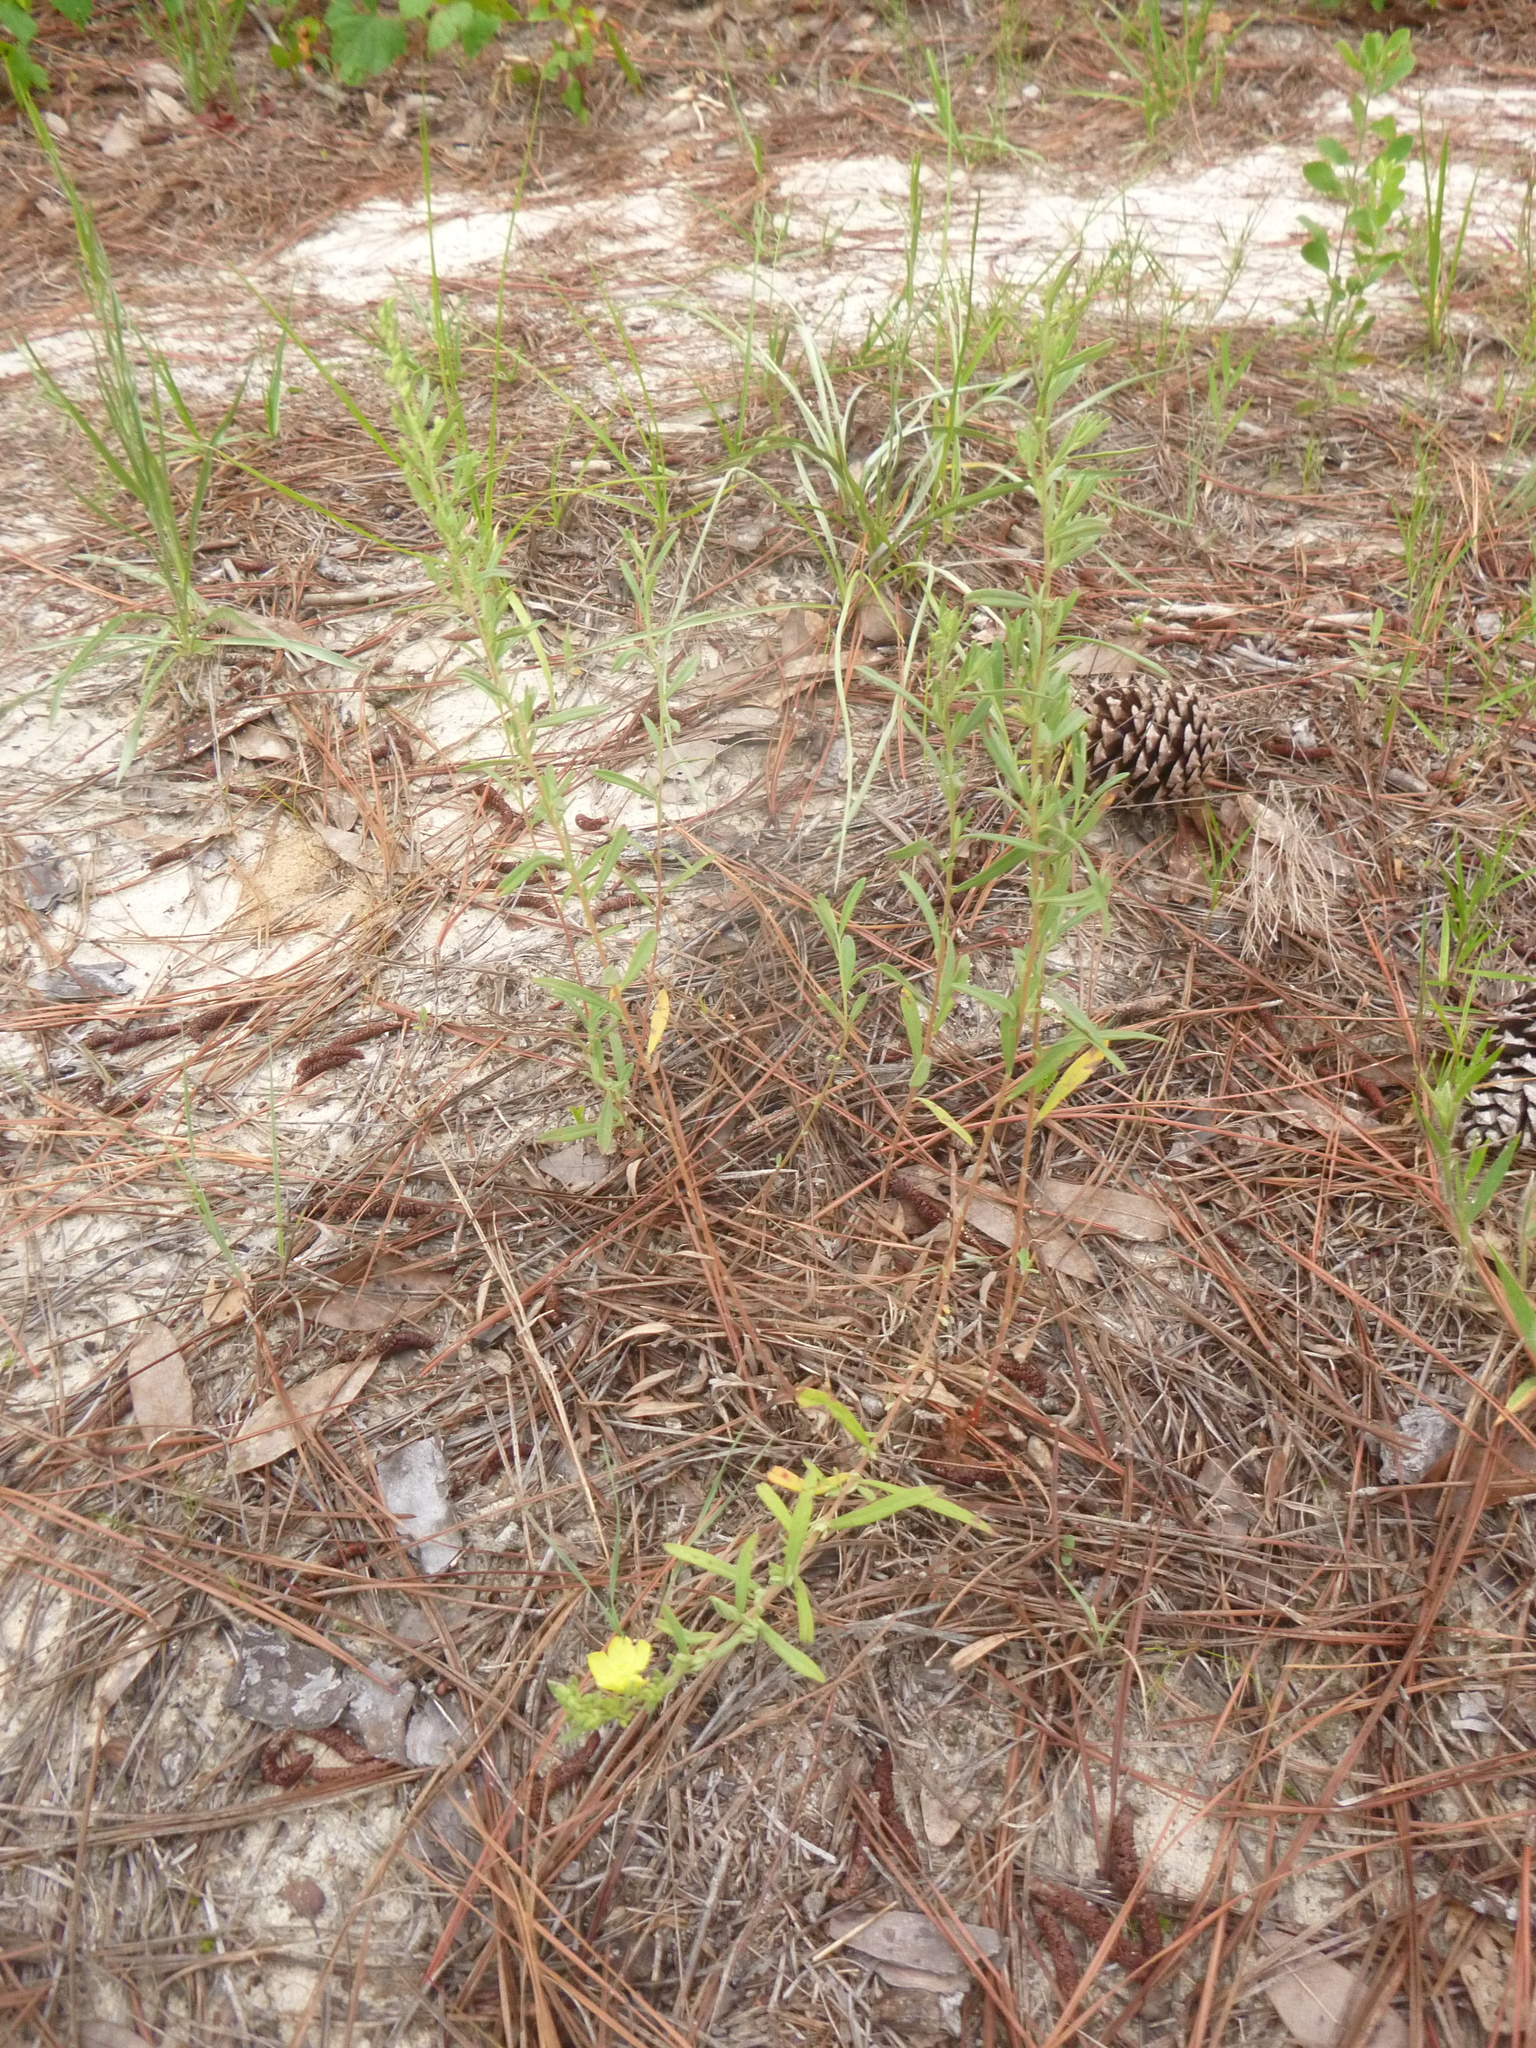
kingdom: Plantae
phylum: Tracheophyta
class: Magnoliopsida
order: Malvales
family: Cistaceae
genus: Crocanthemum
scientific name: Crocanthemum rosmarinifolium
